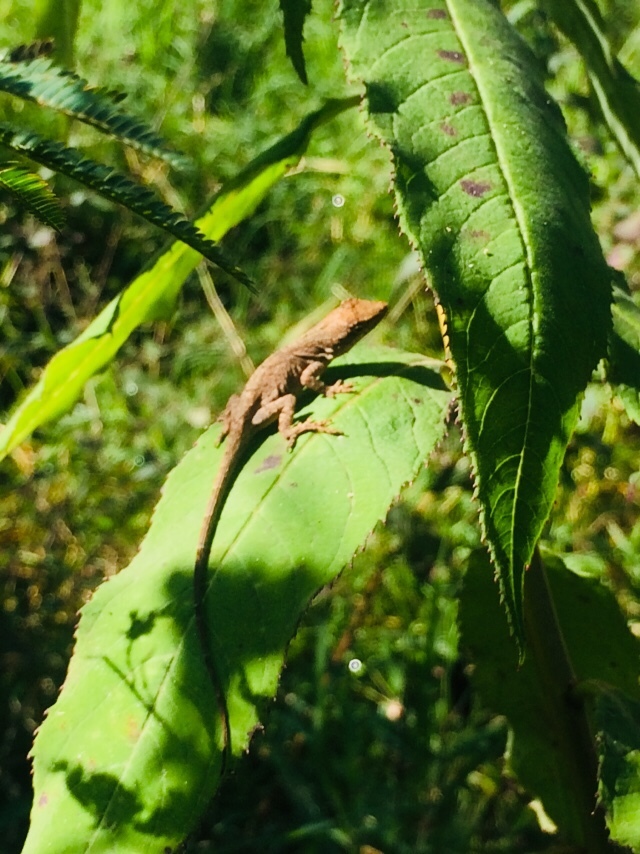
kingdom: Animalia
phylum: Chordata
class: Squamata
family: Dactyloidae
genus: Anolis
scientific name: Anolis schiedii
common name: Schiede's anole
